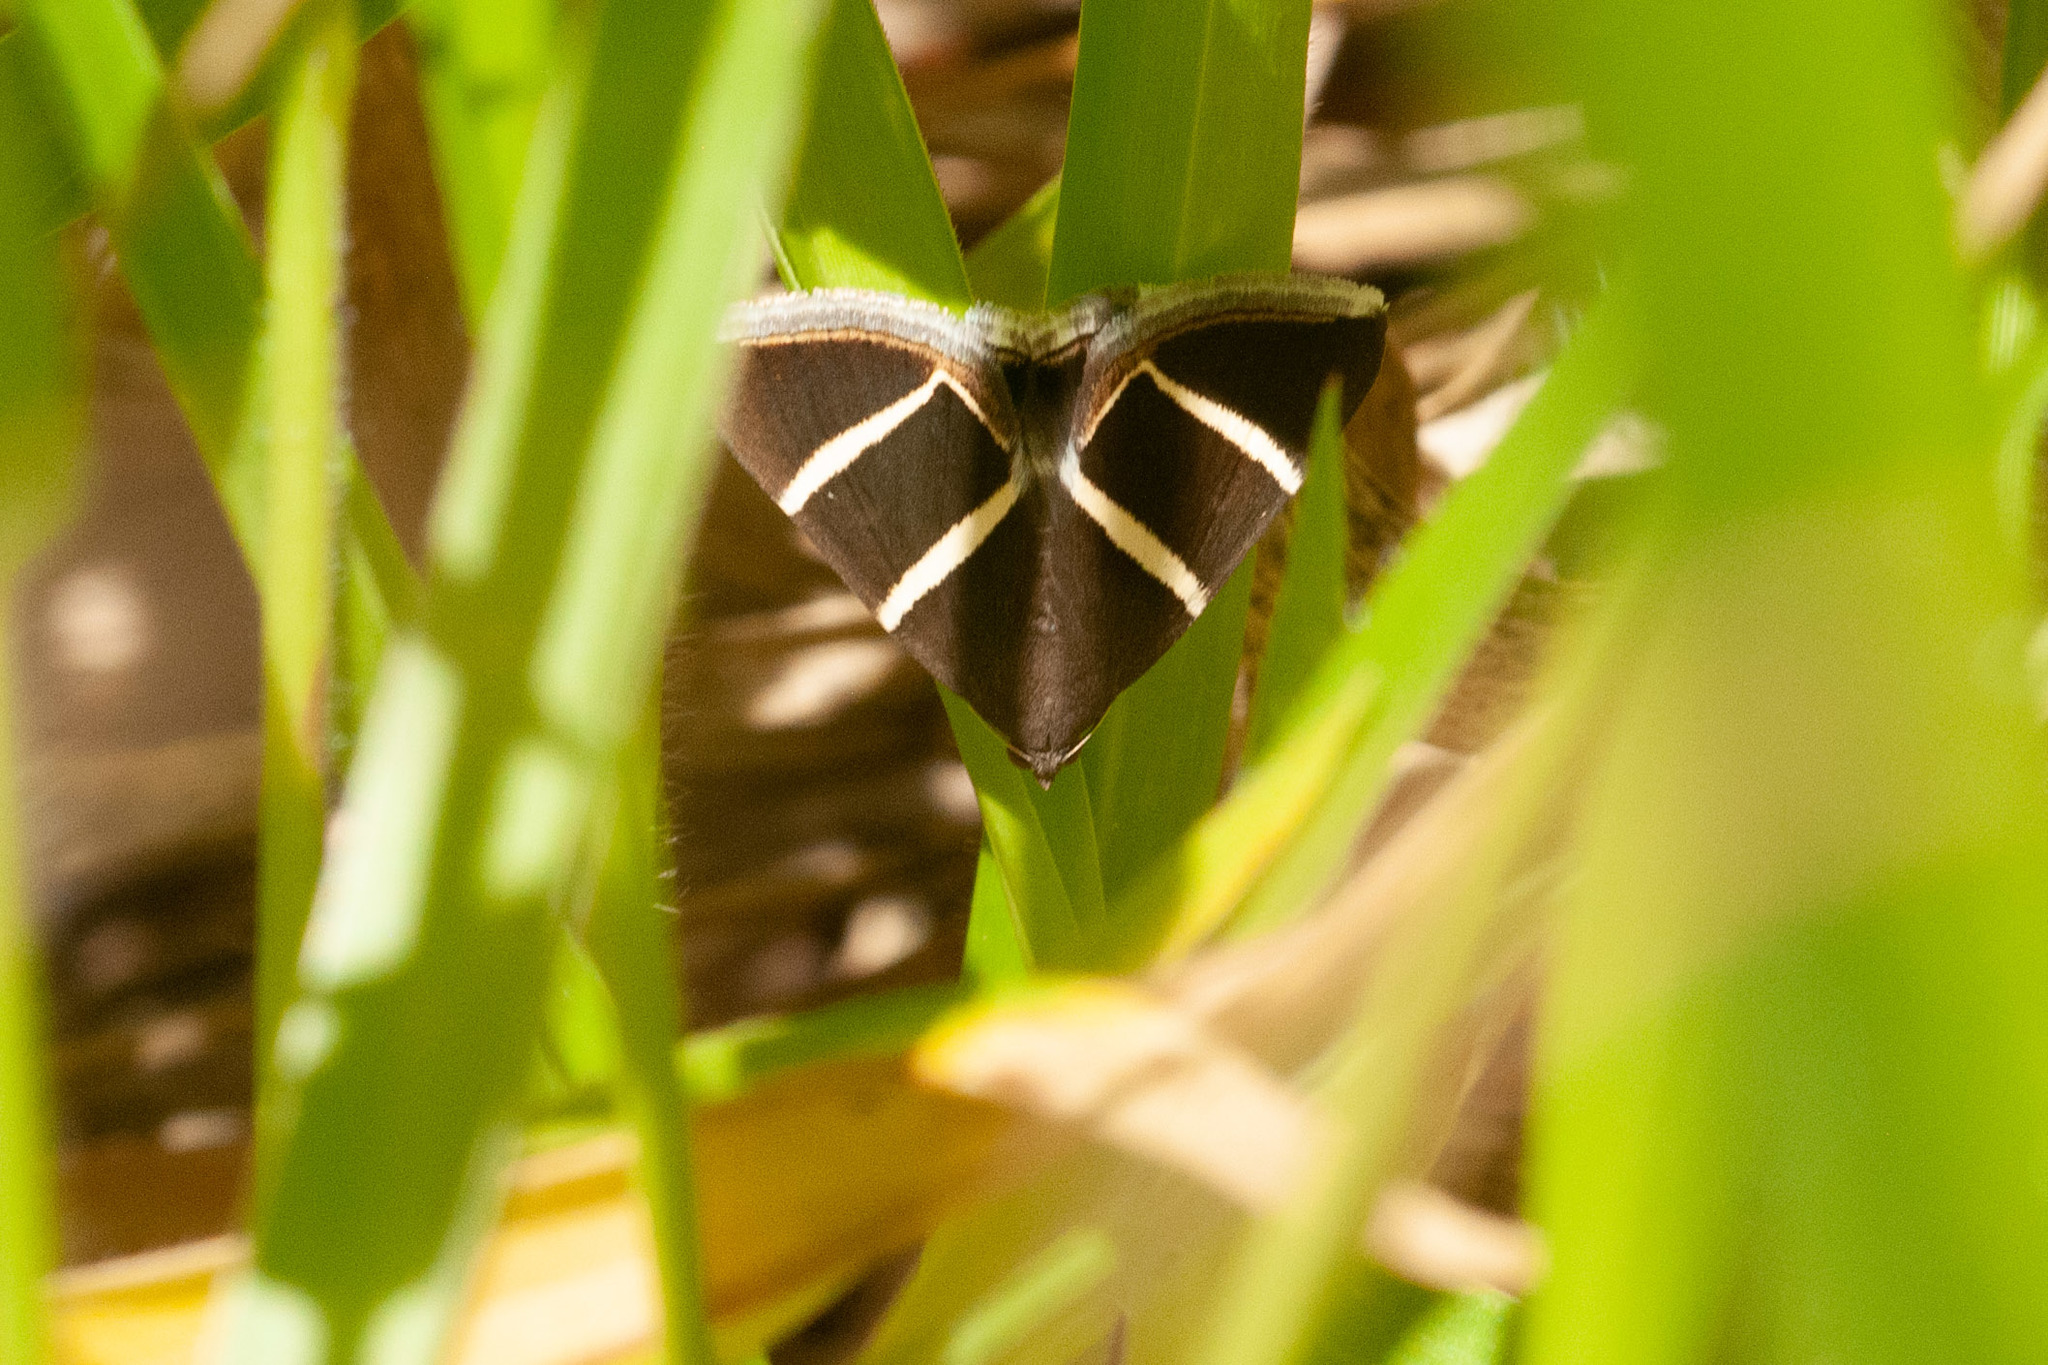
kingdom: Animalia
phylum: Arthropoda
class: Insecta
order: Lepidoptera
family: Erebidae
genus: Grammodes
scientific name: Grammodes justa
